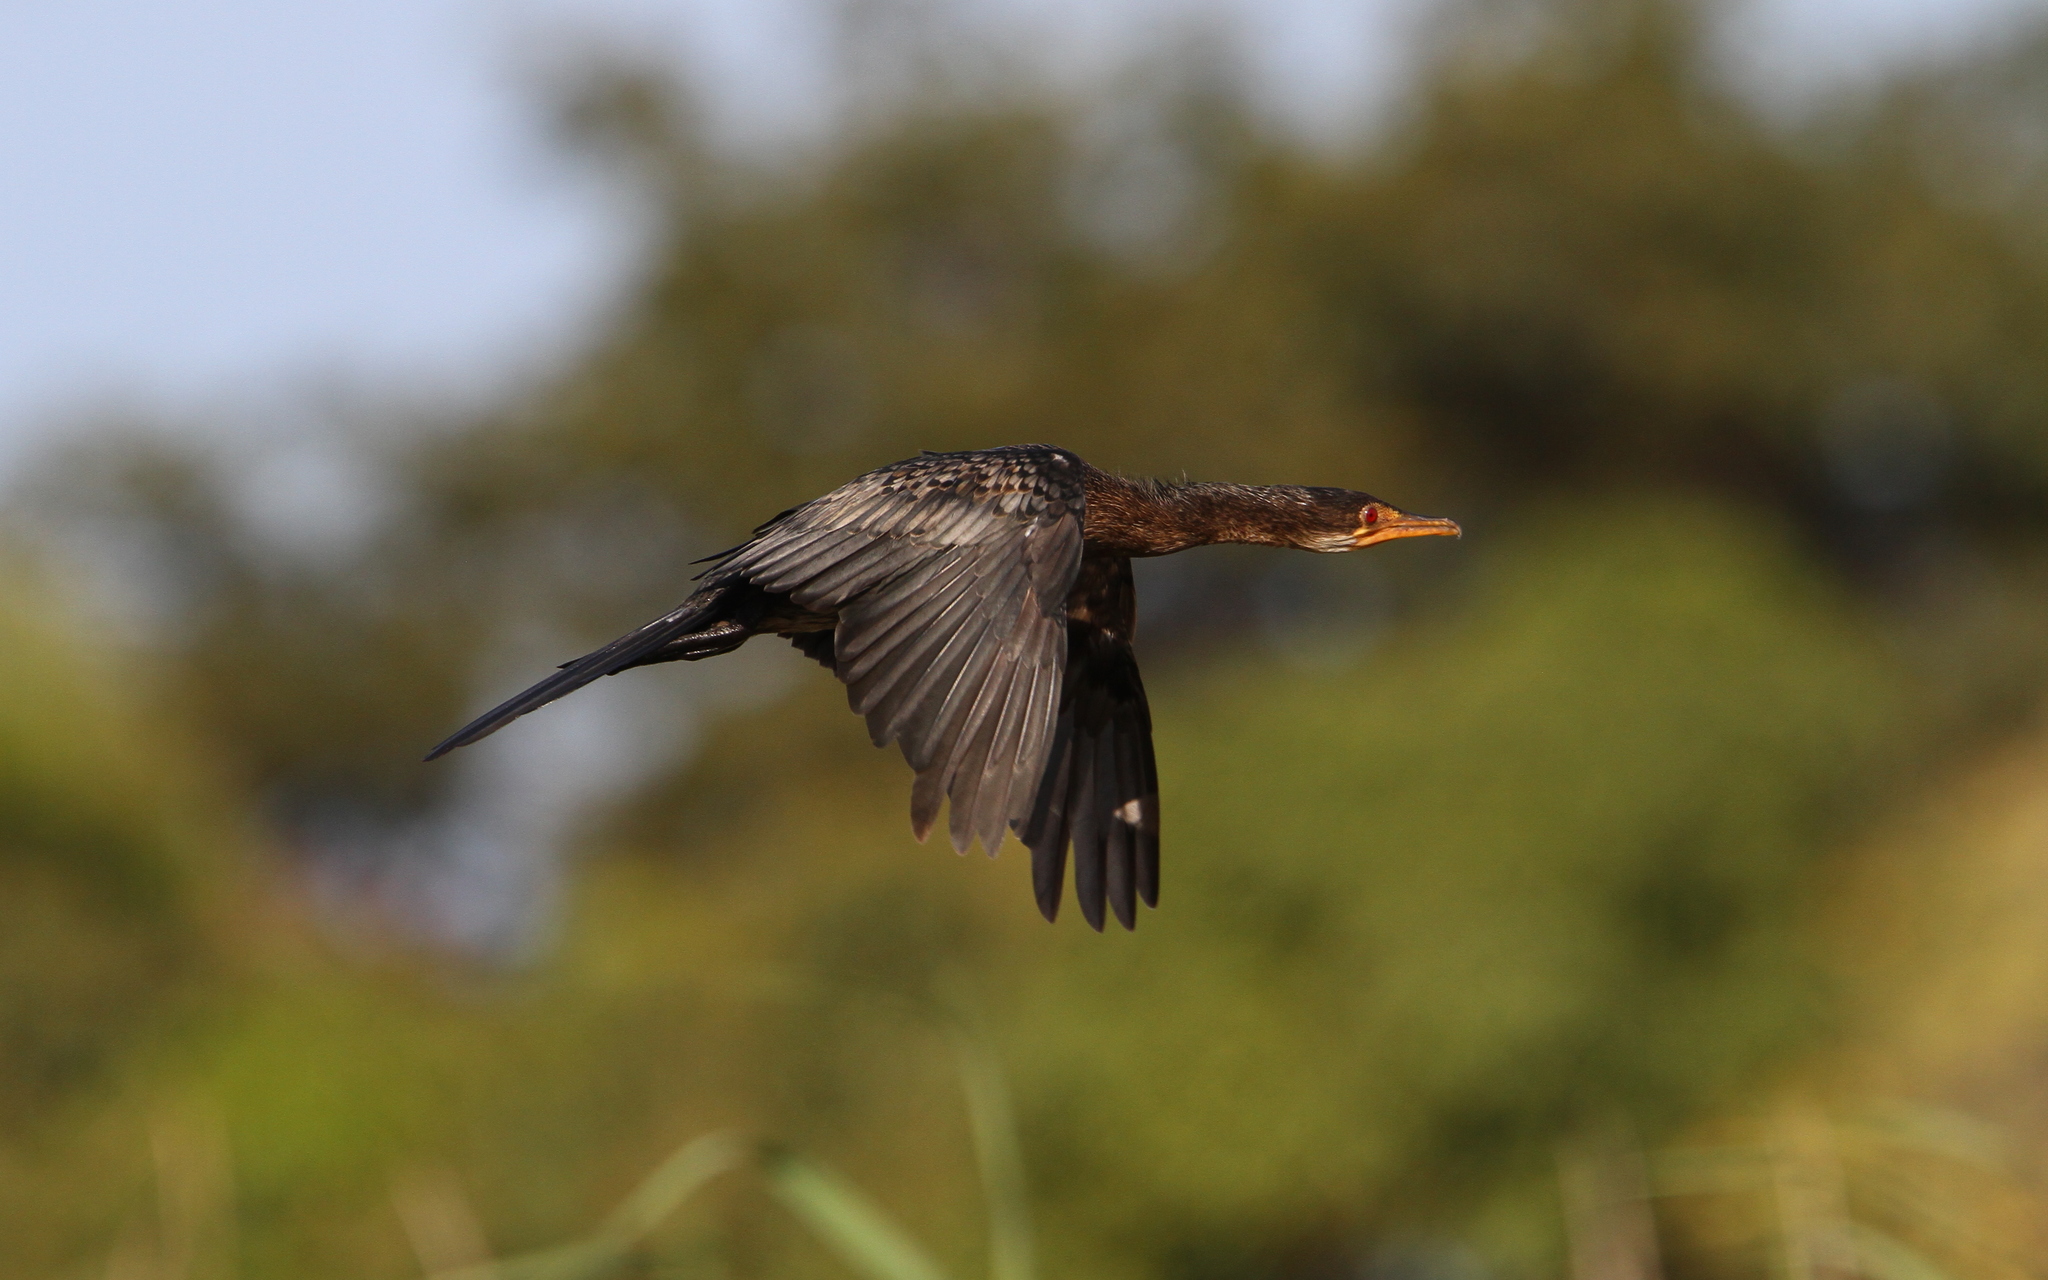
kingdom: Animalia
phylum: Chordata
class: Aves
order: Suliformes
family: Phalacrocoracidae
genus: Microcarbo
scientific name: Microcarbo africanus
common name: Long-tailed cormorant
